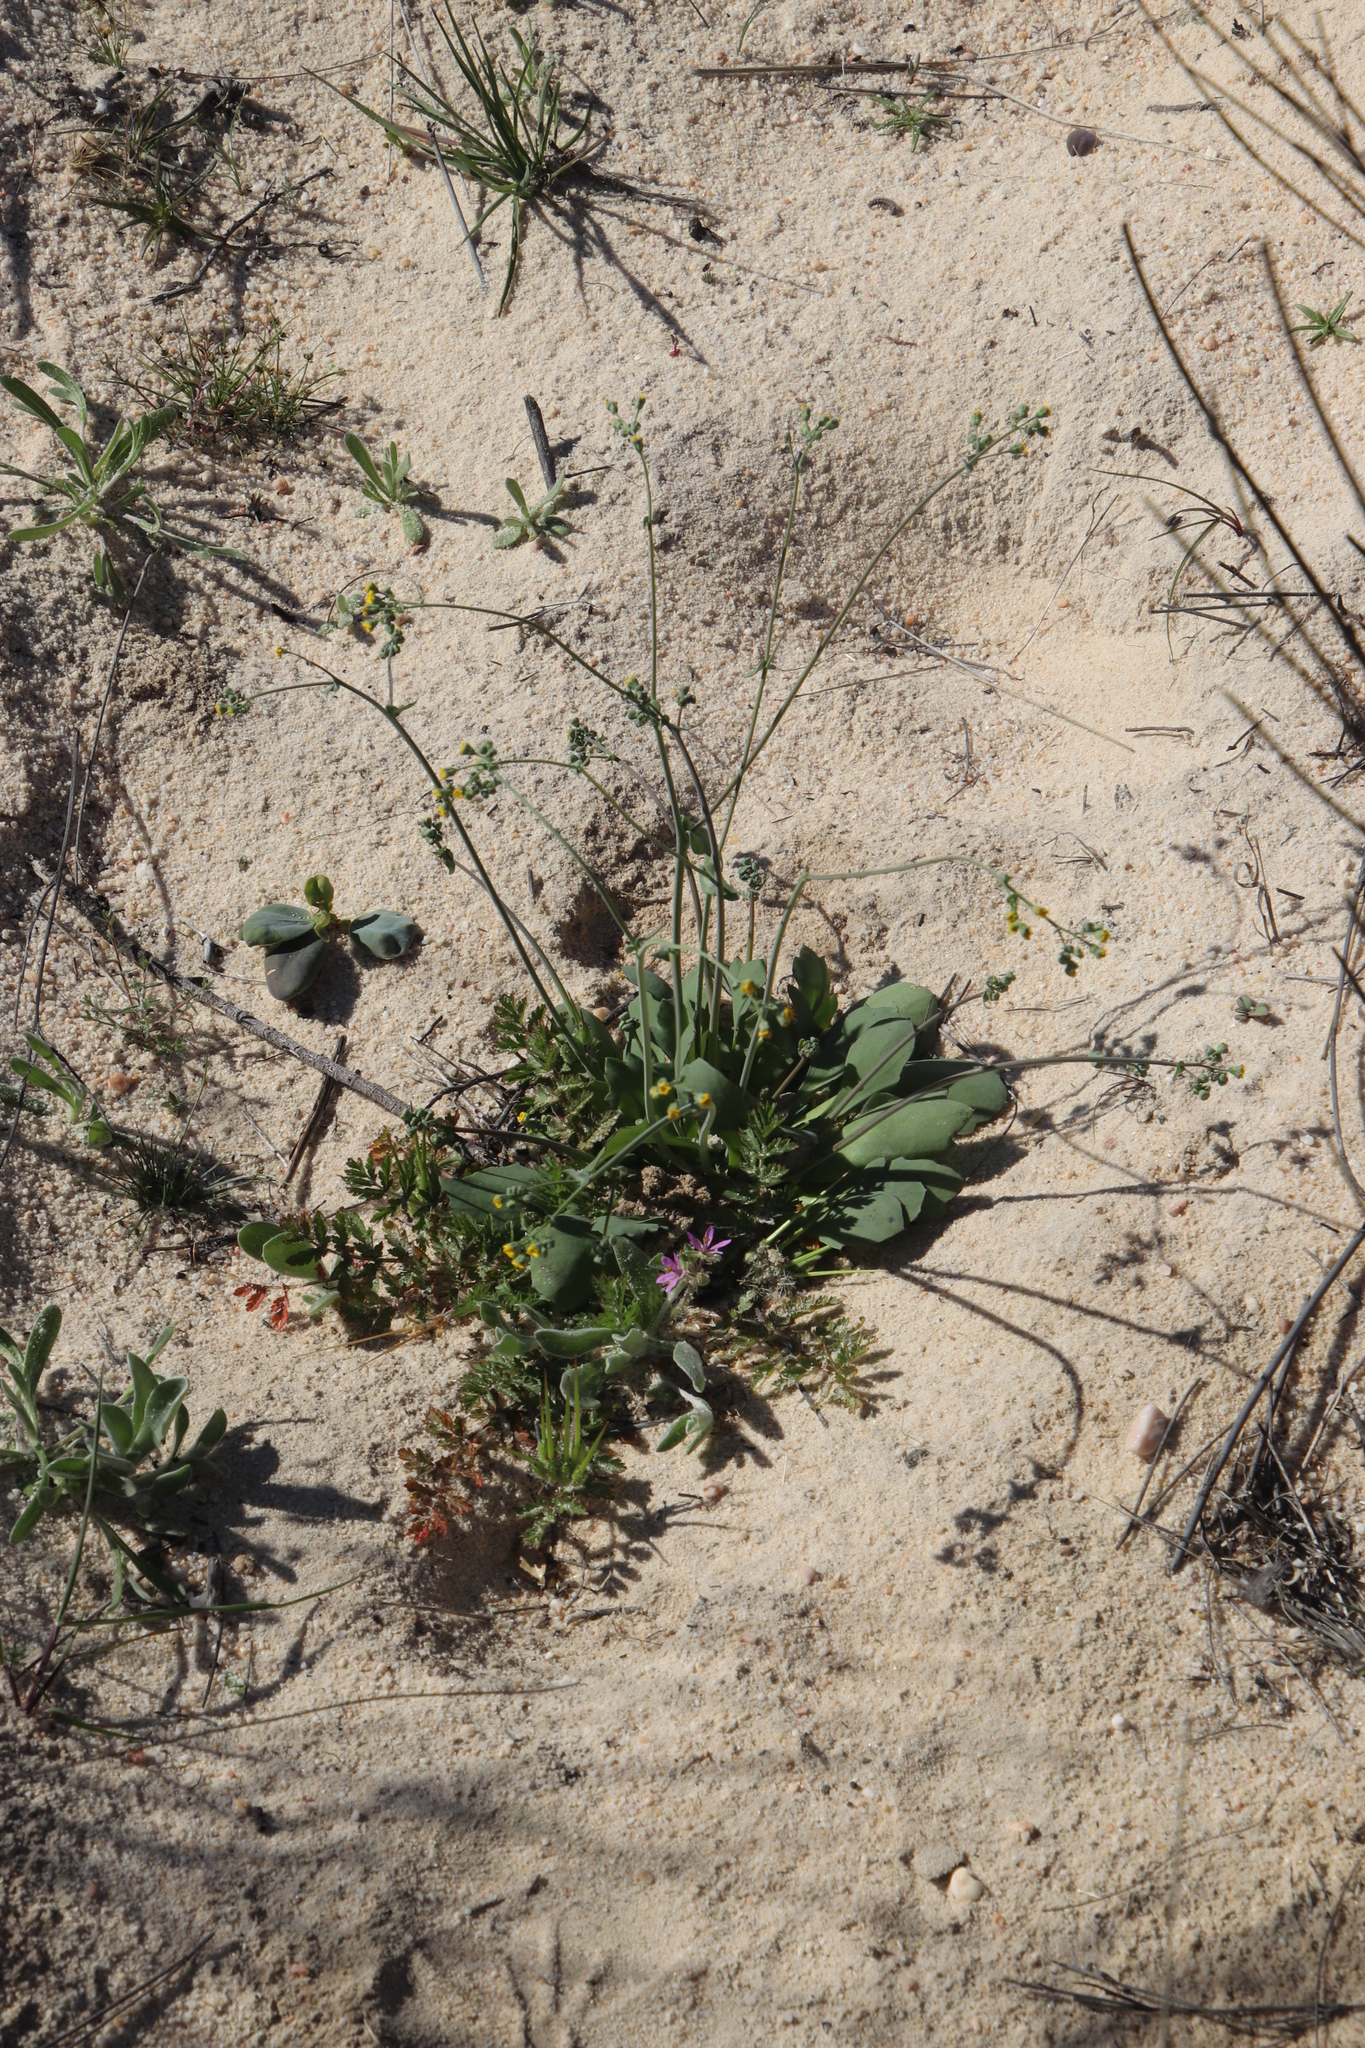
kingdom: Plantae
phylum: Tracheophyta
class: Magnoliopsida
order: Asterales
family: Asteraceae
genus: Gymnodiscus
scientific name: Gymnodiscus capillaris
